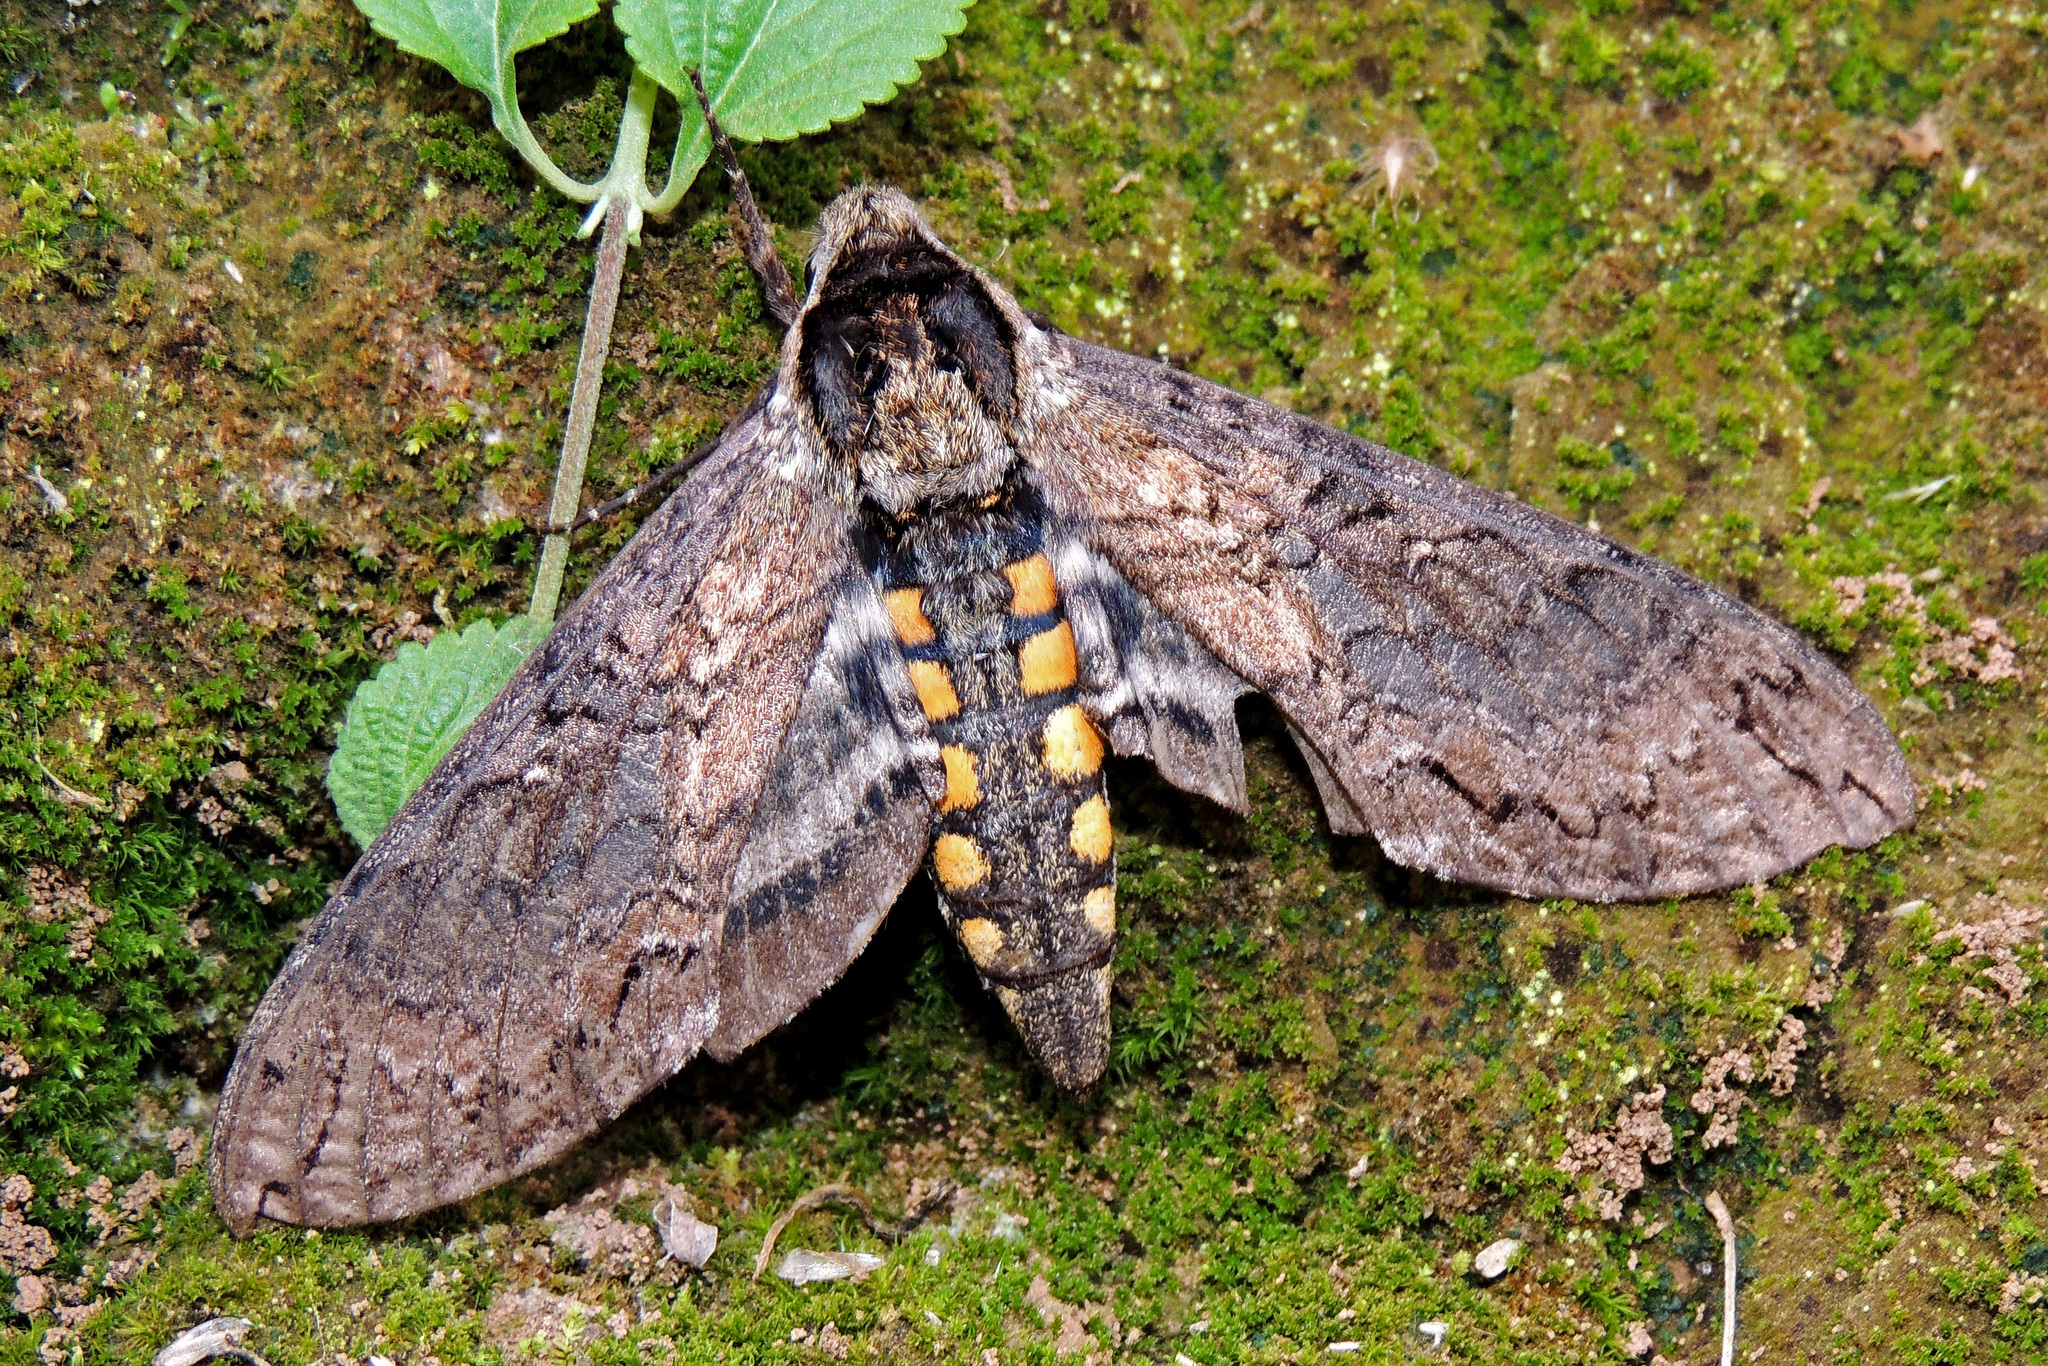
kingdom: Animalia
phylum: Arthropoda
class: Insecta
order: Lepidoptera
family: Sphingidae
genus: Manduca
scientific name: Manduca exiguus
